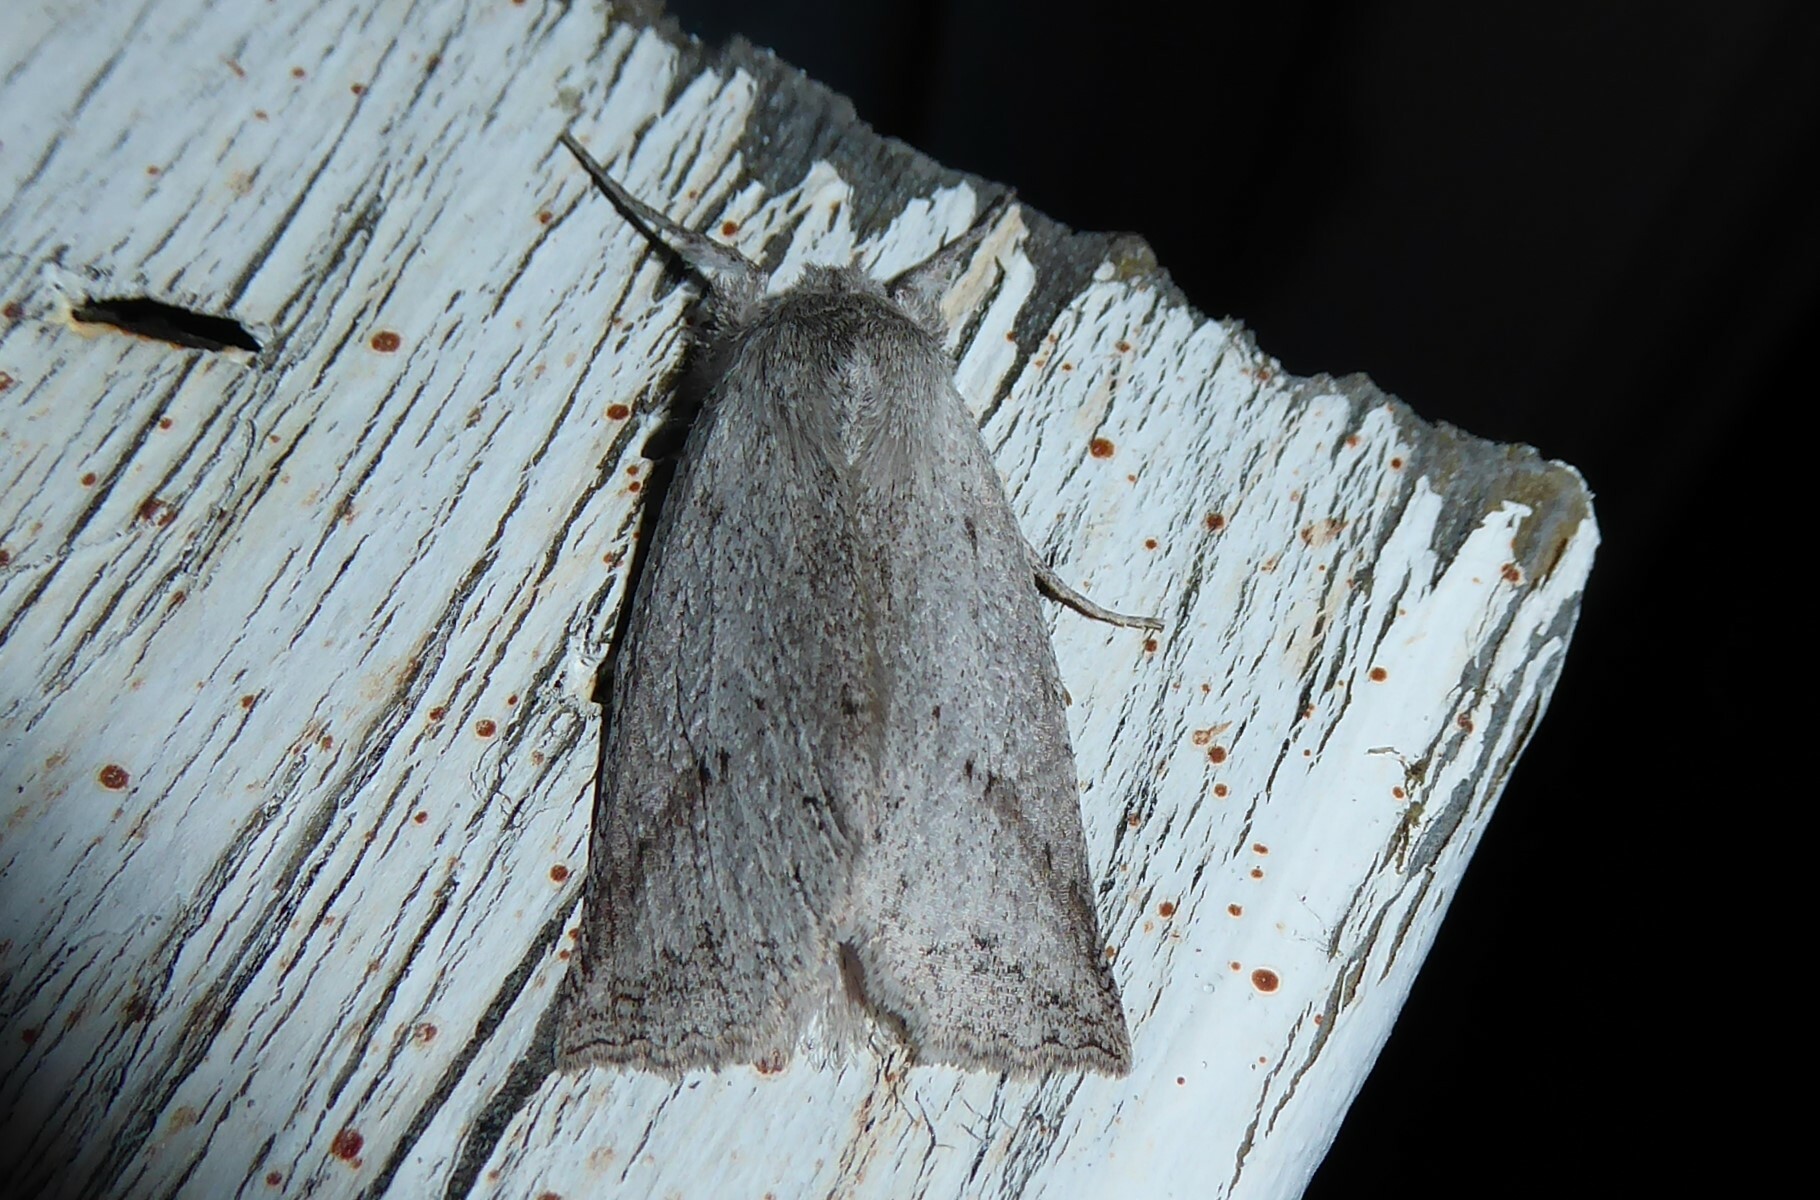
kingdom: Animalia
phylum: Arthropoda
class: Insecta
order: Lepidoptera
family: Geometridae
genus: Declana
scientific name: Declana leptomera
